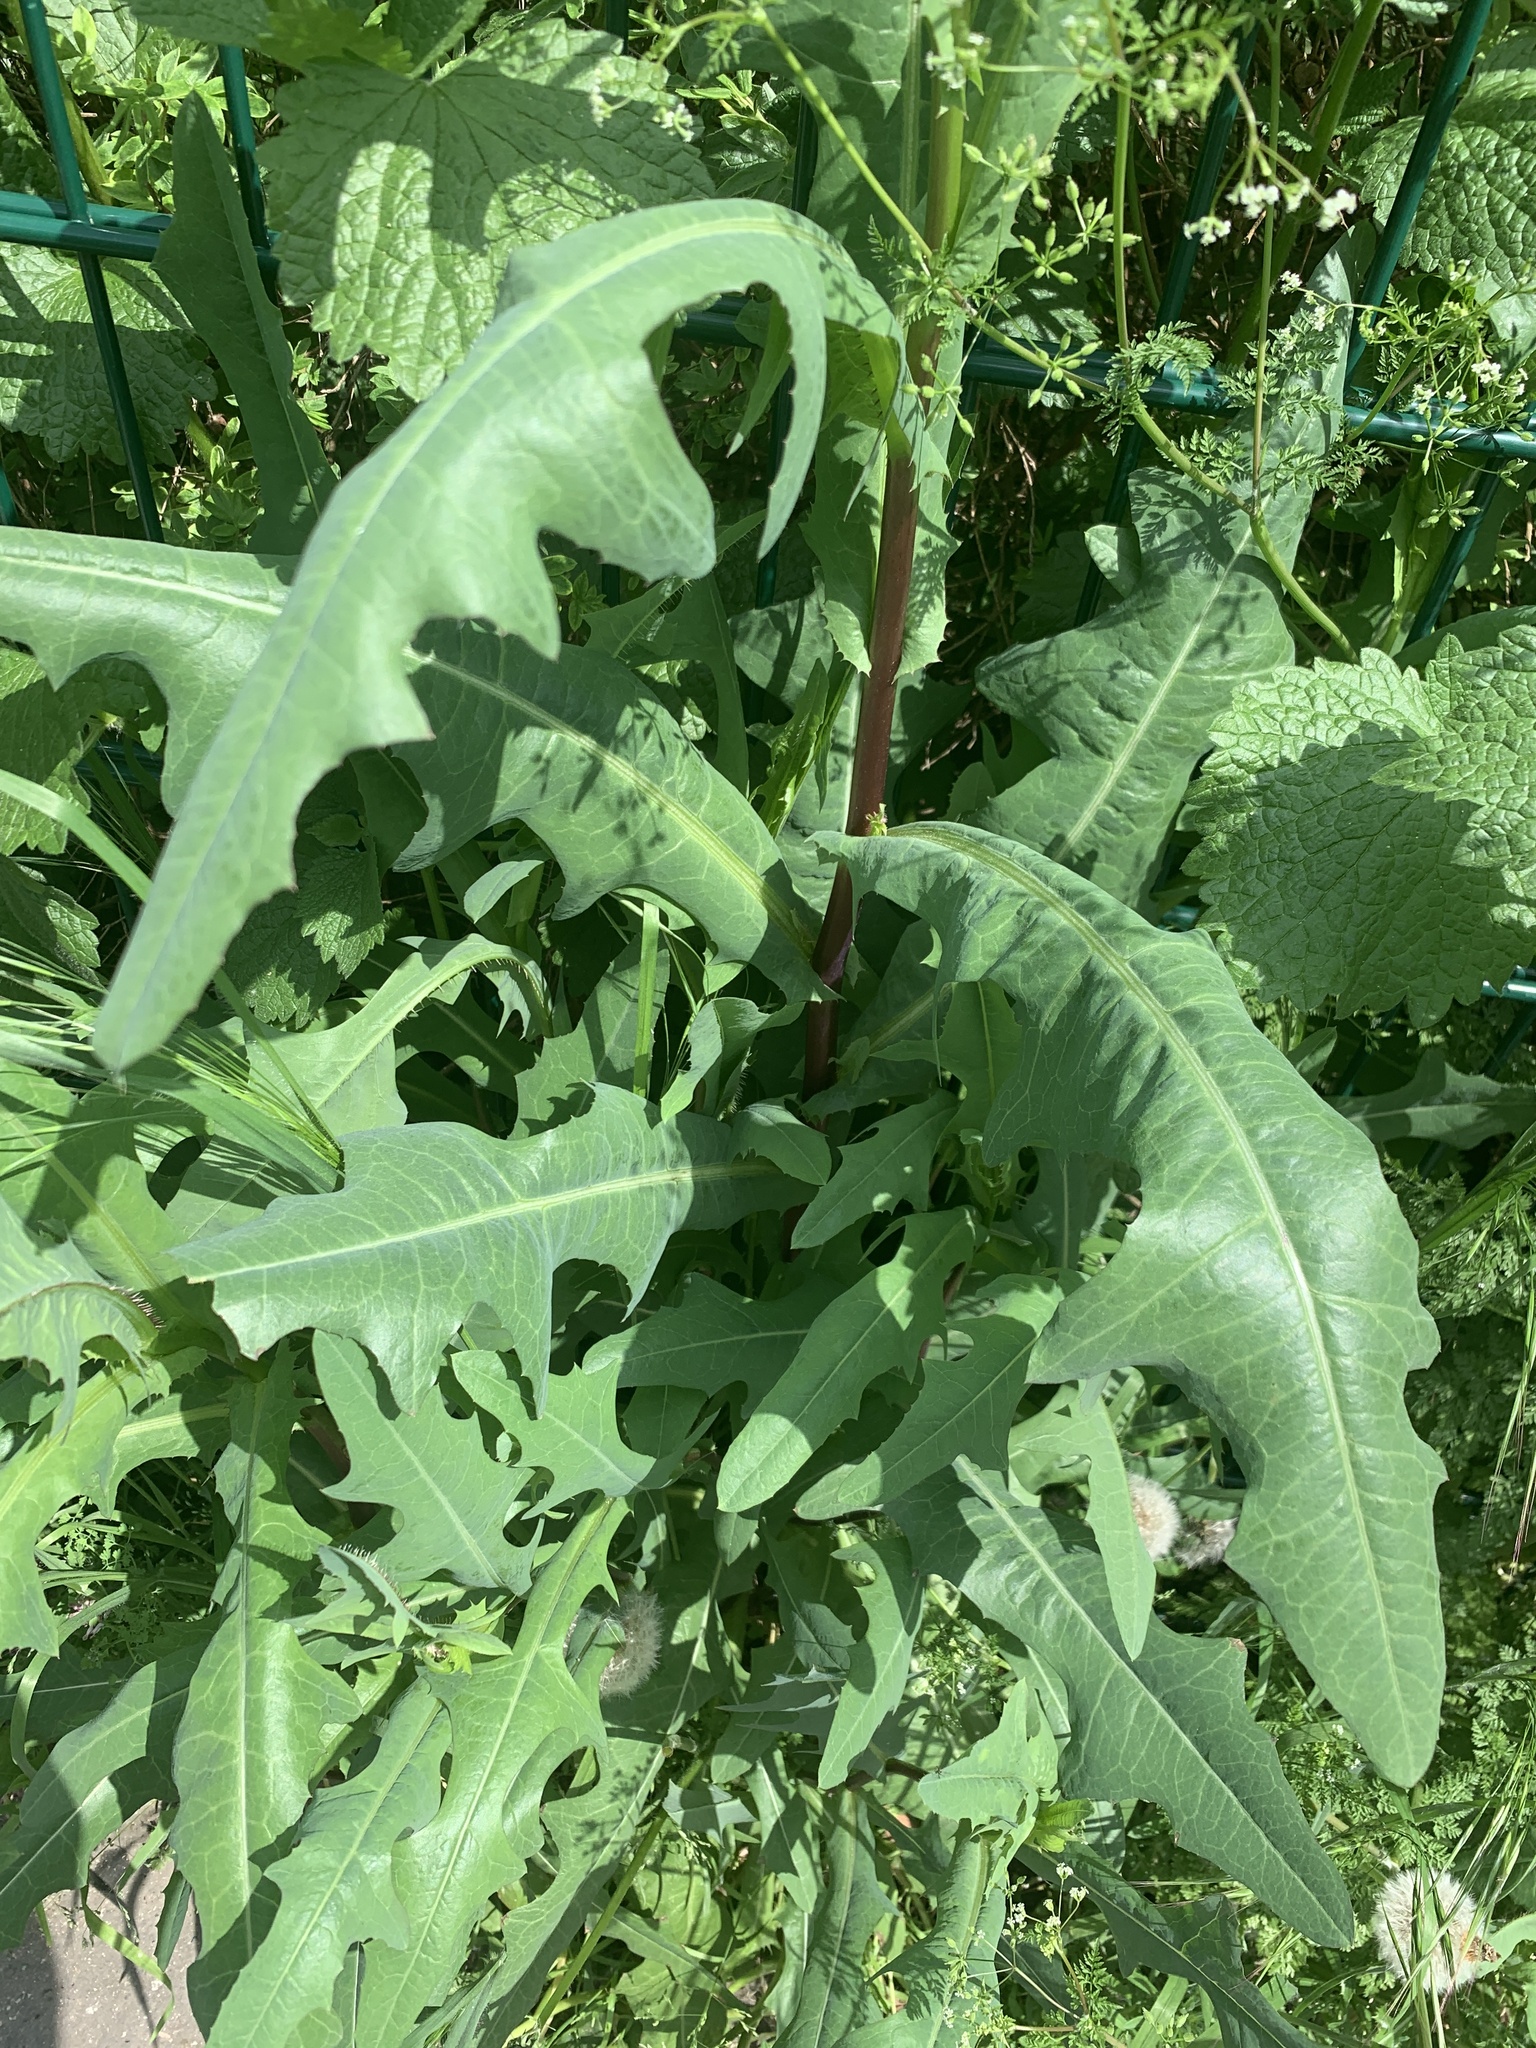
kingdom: Plantae
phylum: Tracheophyta
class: Magnoliopsida
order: Asterales
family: Asteraceae
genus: Lactuca
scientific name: Lactuca serriola
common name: Prickly lettuce
